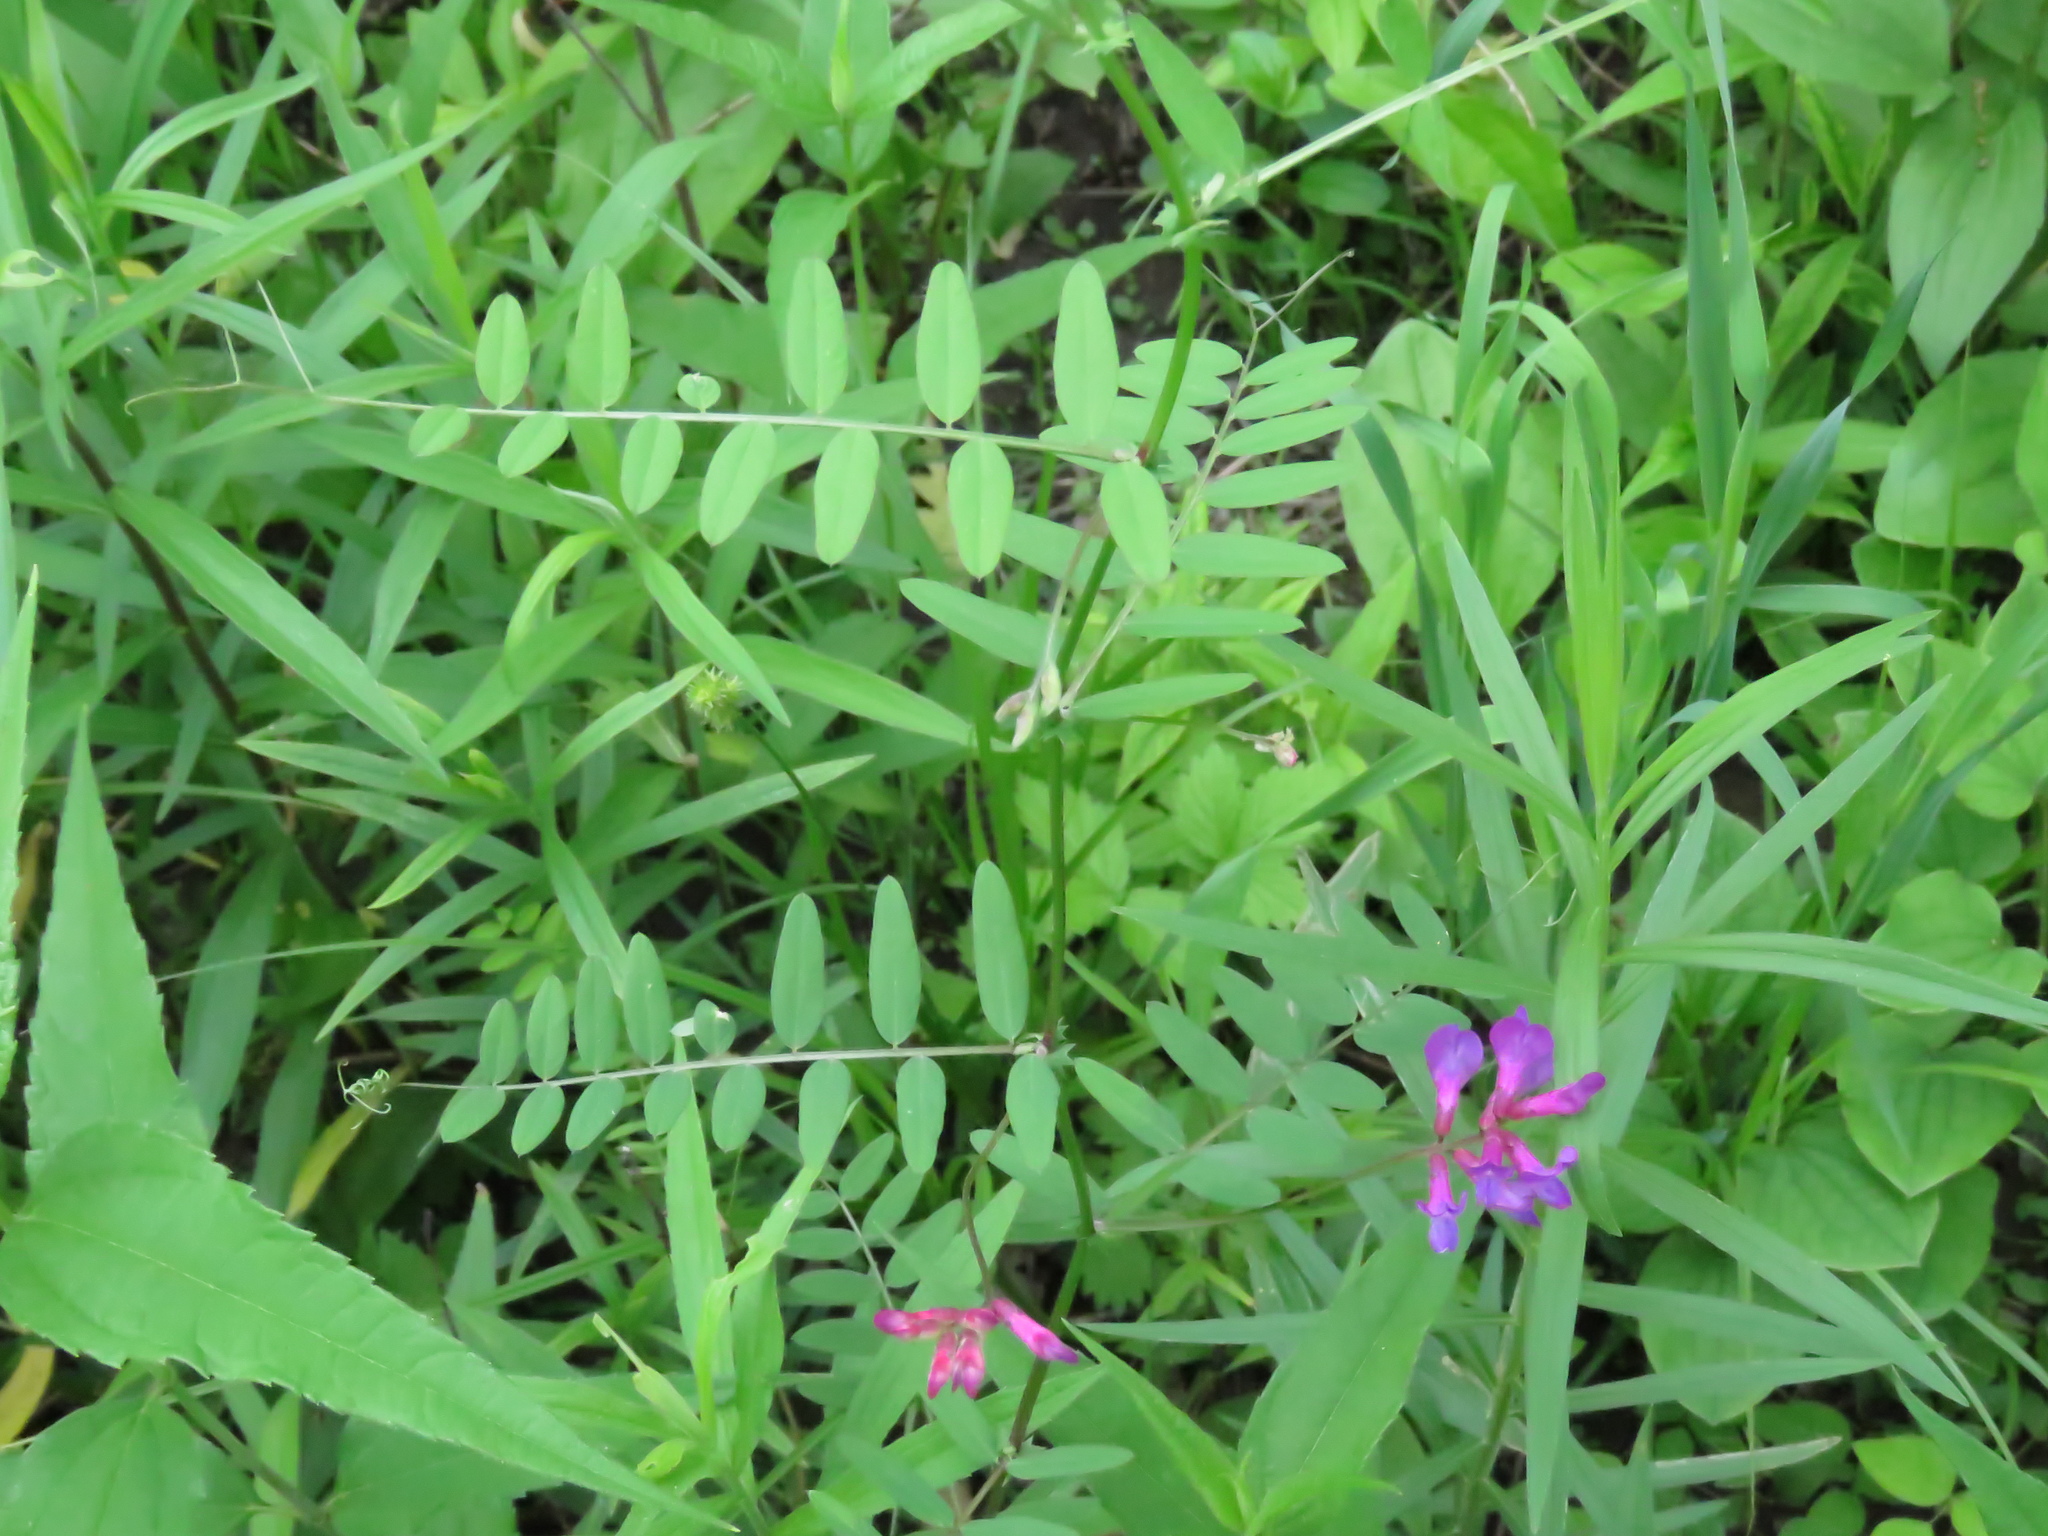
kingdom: Plantae
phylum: Tracheophyta
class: Magnoliopsida
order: Fabales
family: Fabaceae
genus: Vicia
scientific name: Vicia americana
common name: American vetch
